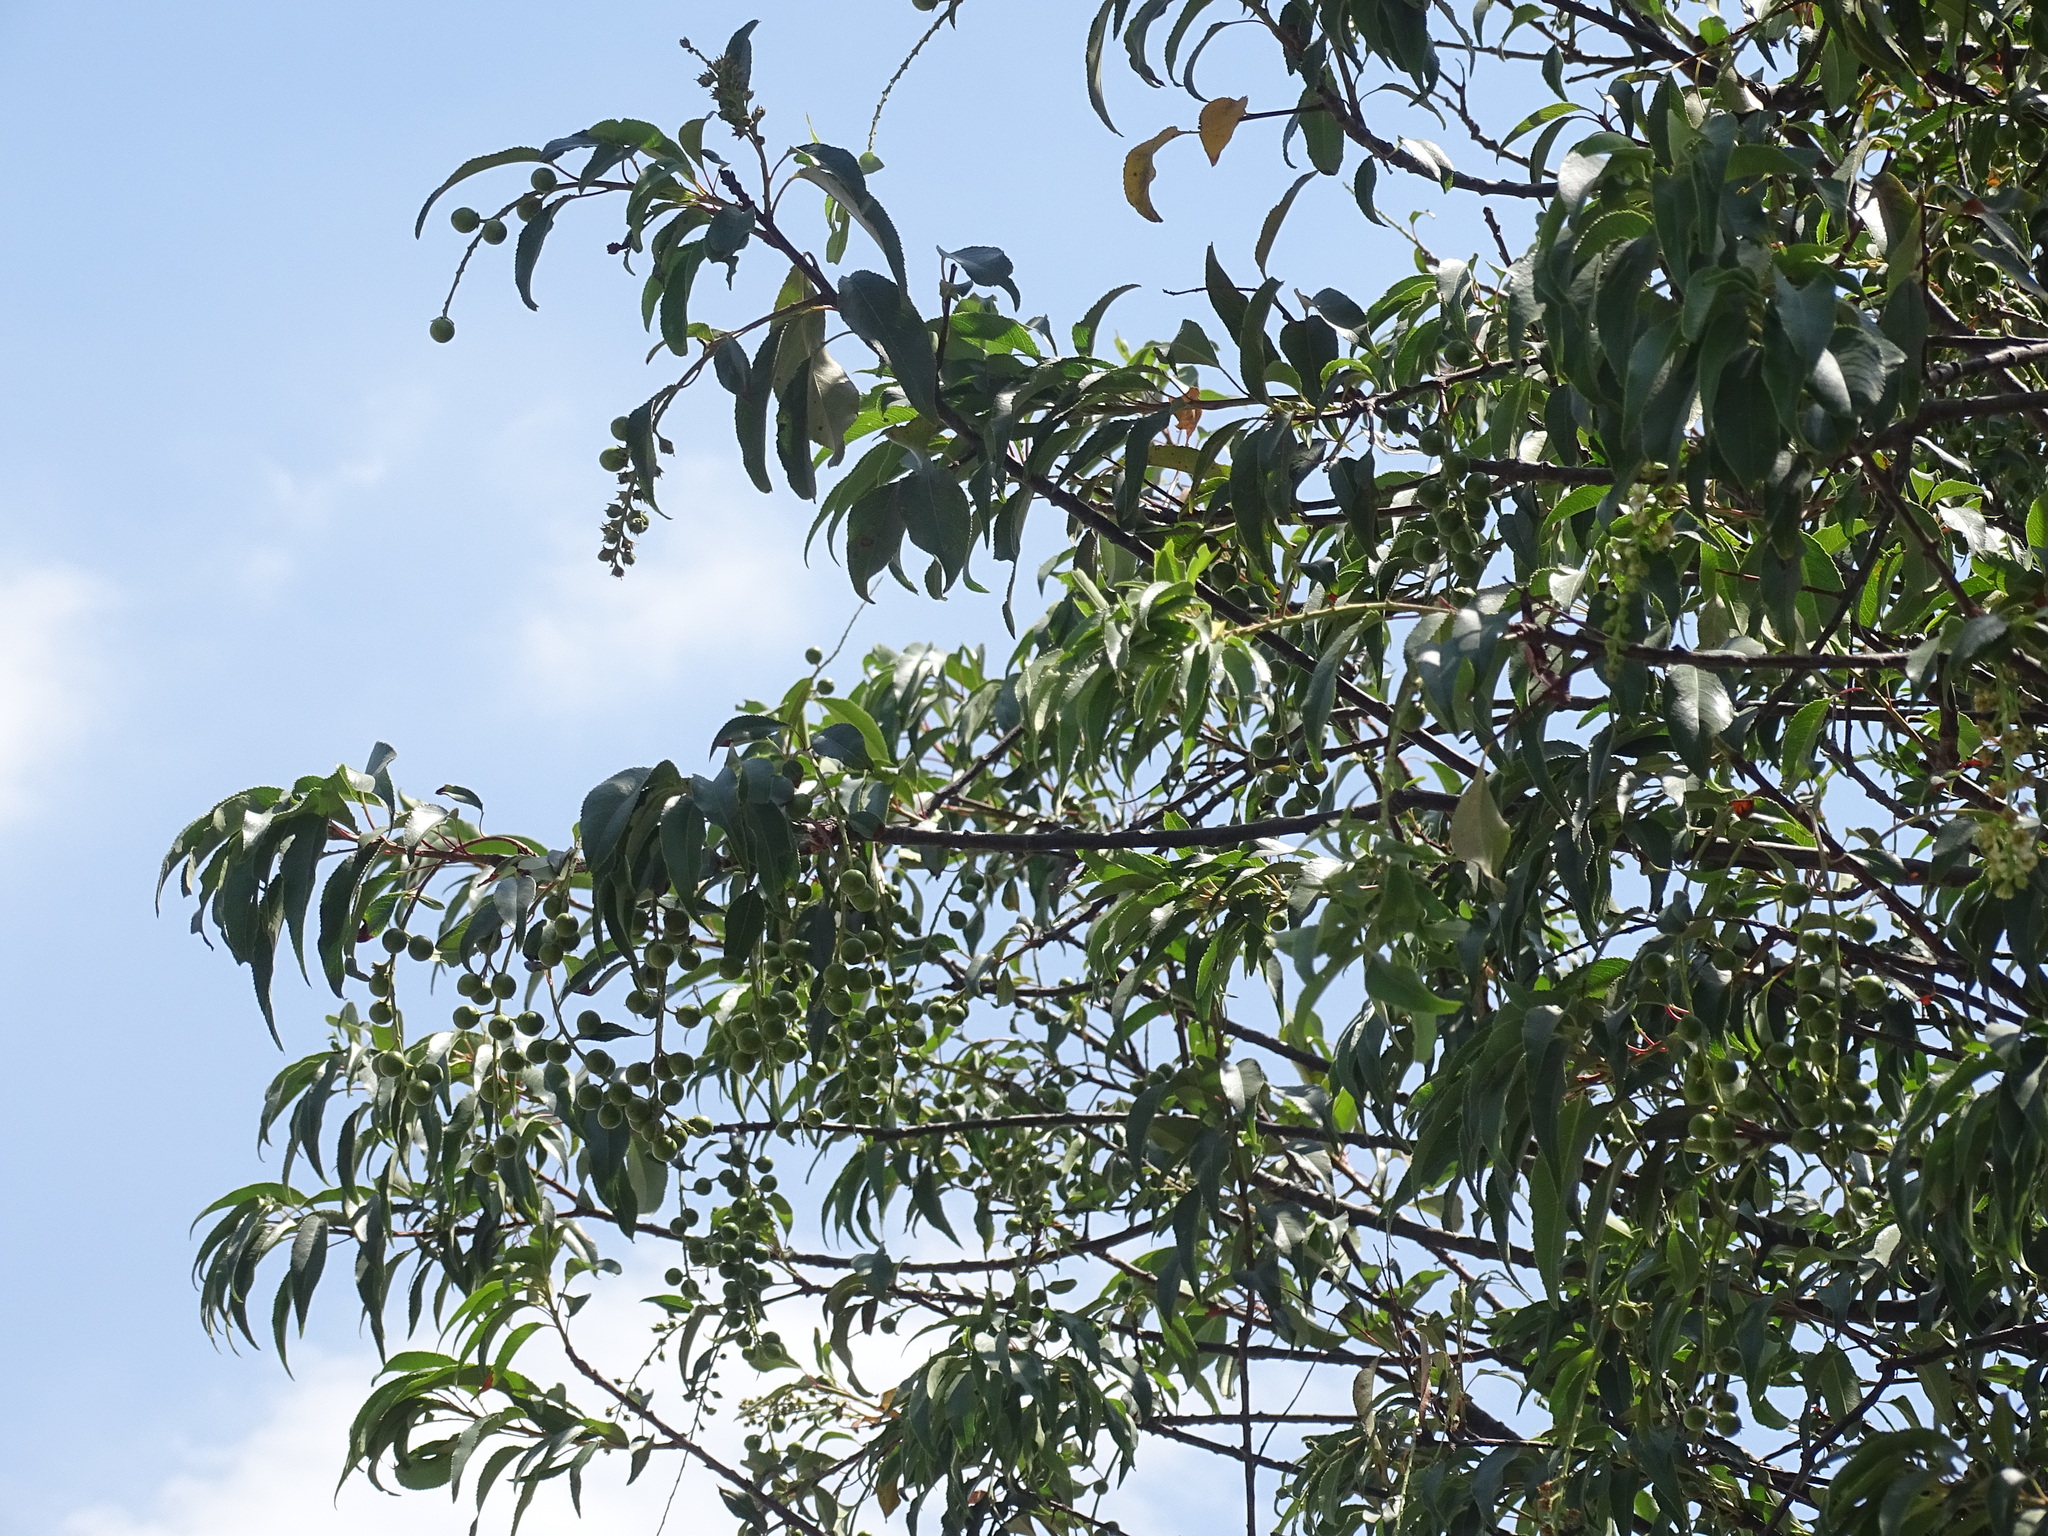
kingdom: Plantae
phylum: Tracheophyta
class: Magnoliopsida
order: Rosales
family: Rosaceae
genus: Prunus
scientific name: Prunus serotina
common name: Black cherry
